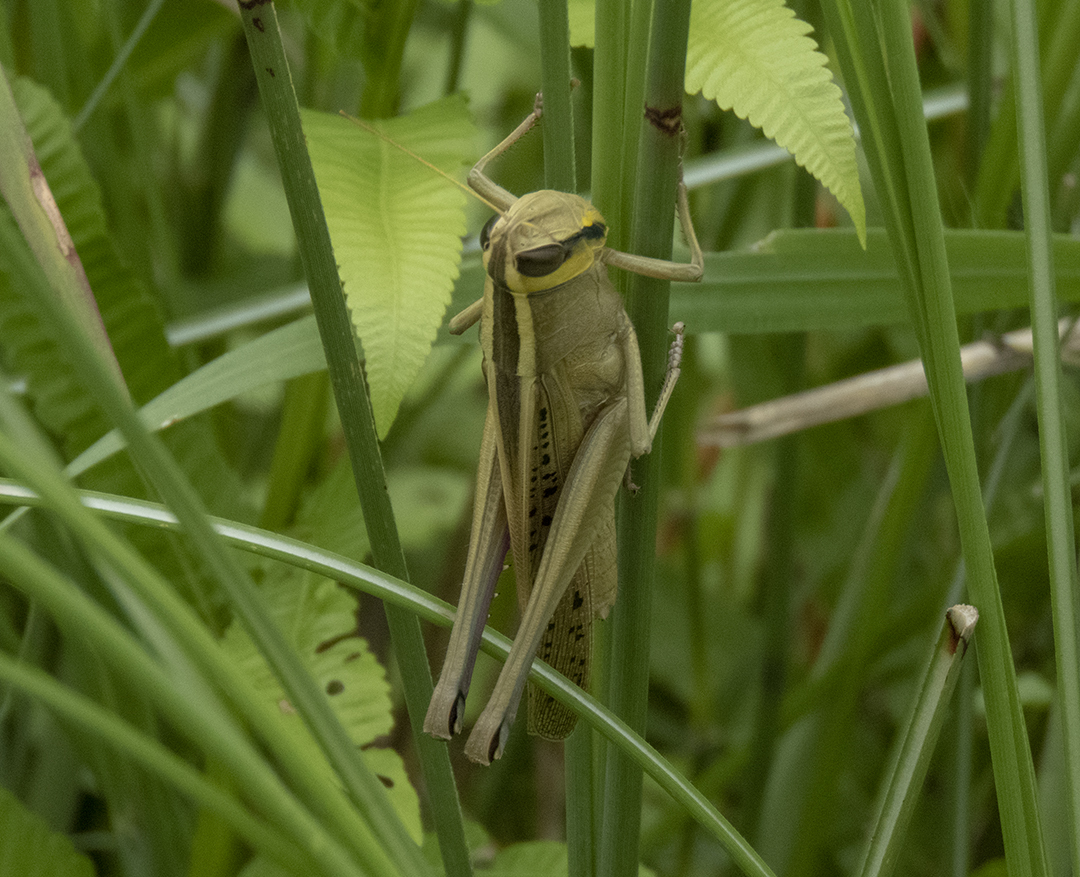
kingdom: Animalia
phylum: Arthropoda
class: Insecta
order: Orthoptera
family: Acrididae
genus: Choroedocus
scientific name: Choroedocus capensis
